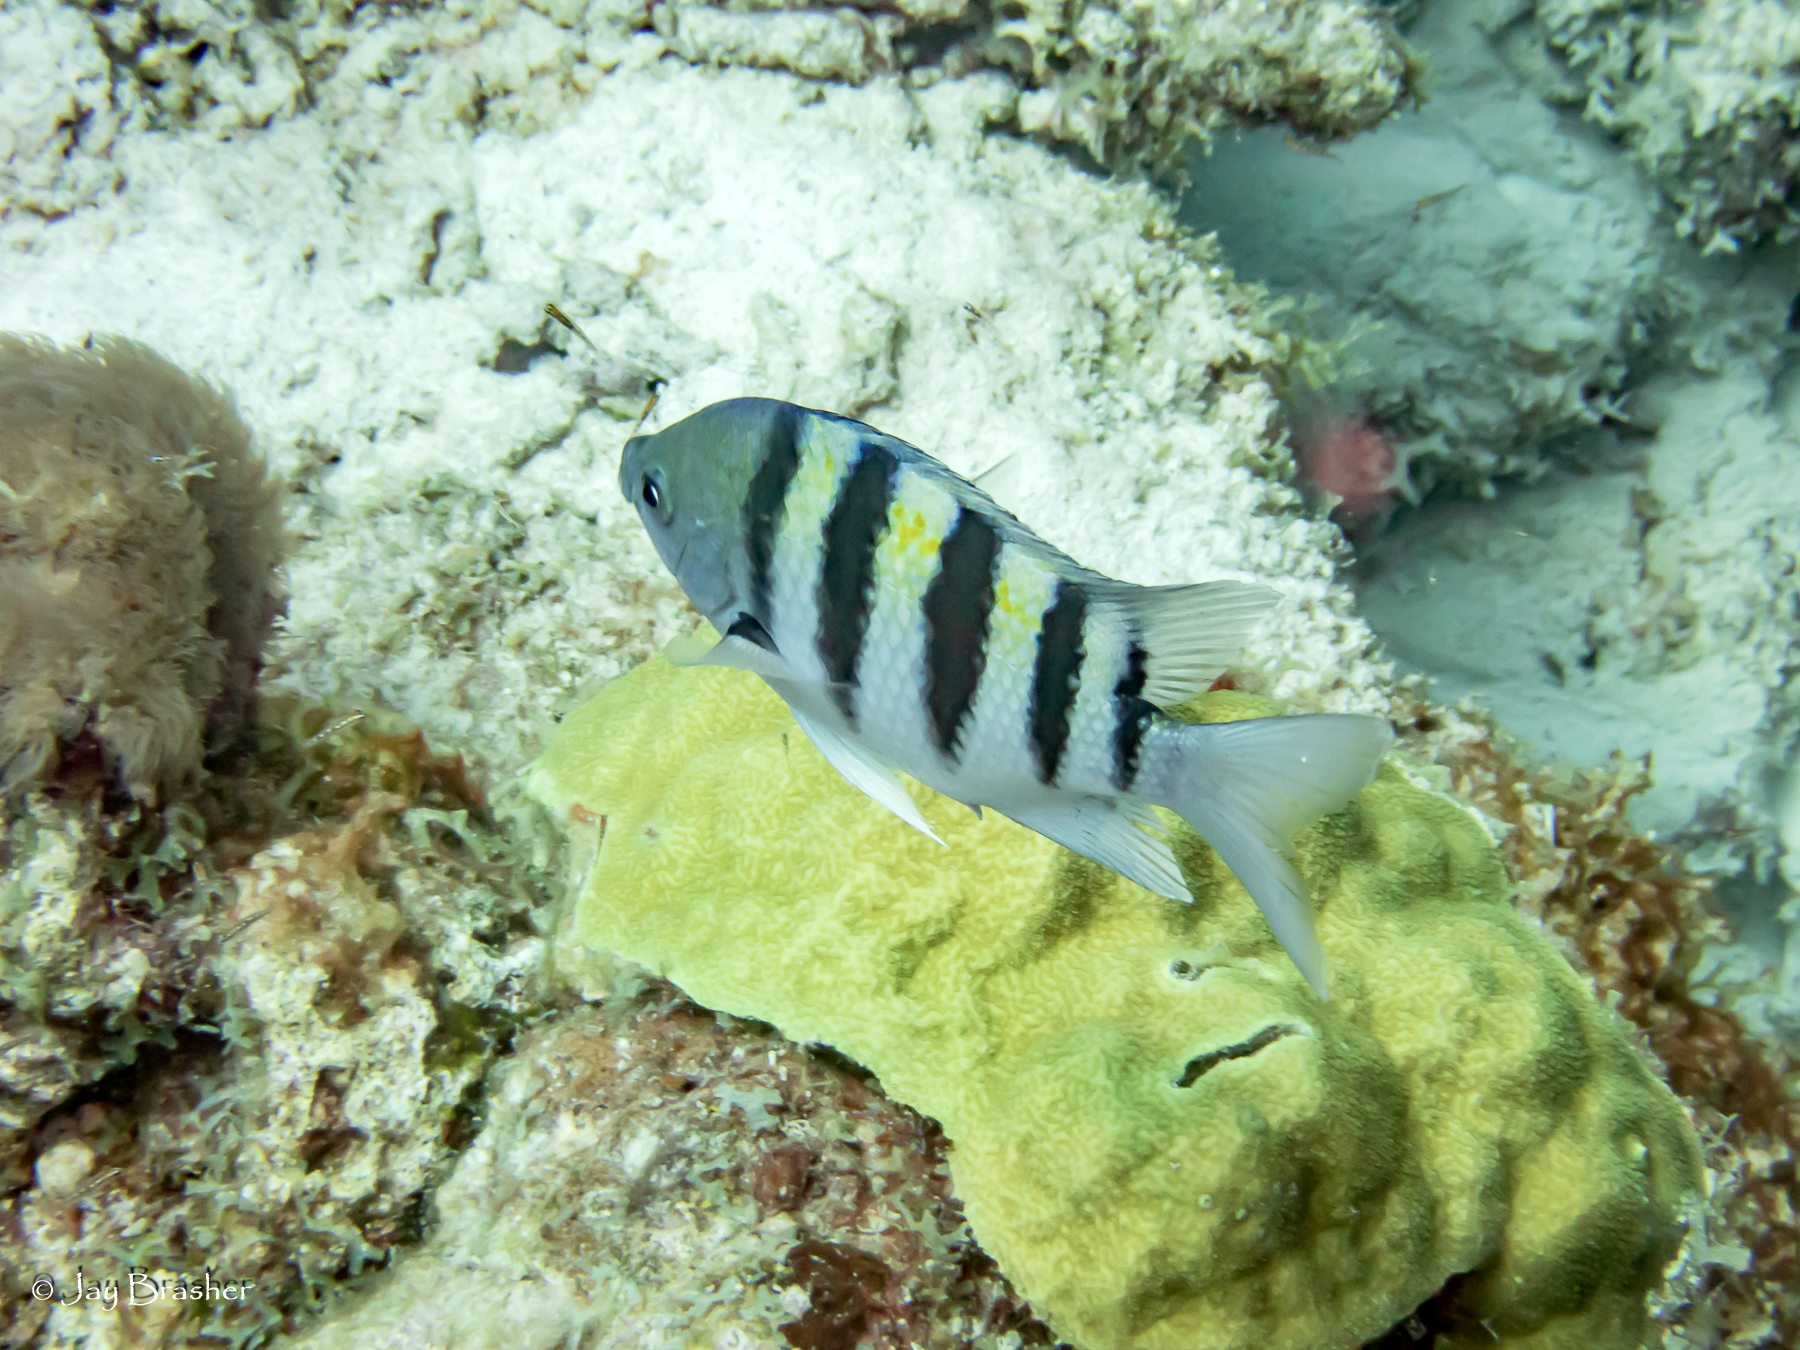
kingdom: Animalia
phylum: Cnidaria
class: Anthozoa
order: Scleractinia
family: Poritidae
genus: Porites
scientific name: Porites astreoides
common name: Mustard hill coral
